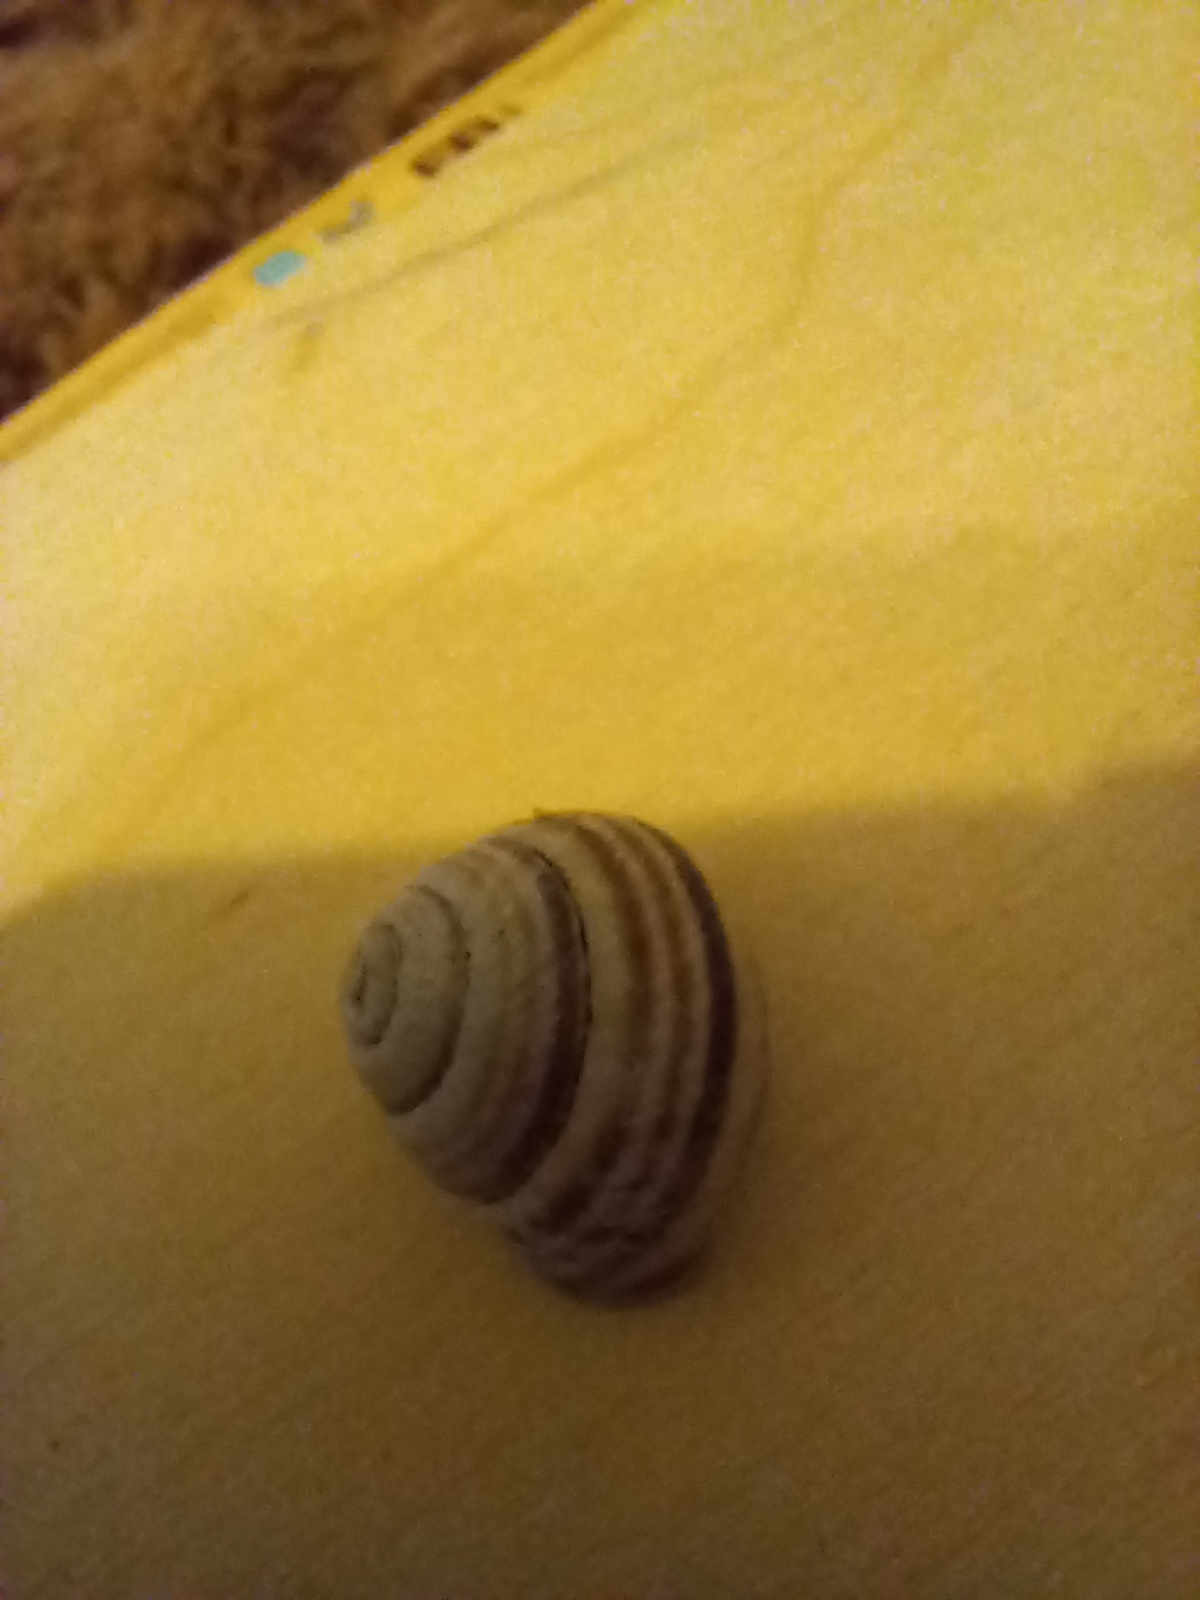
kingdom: Animalia
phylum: Mollusca
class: Gastropoda
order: Stylommatophora
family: Helicidae
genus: Caucasotachea
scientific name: Caucasotachea vindobonensis
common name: European helicid land snail
